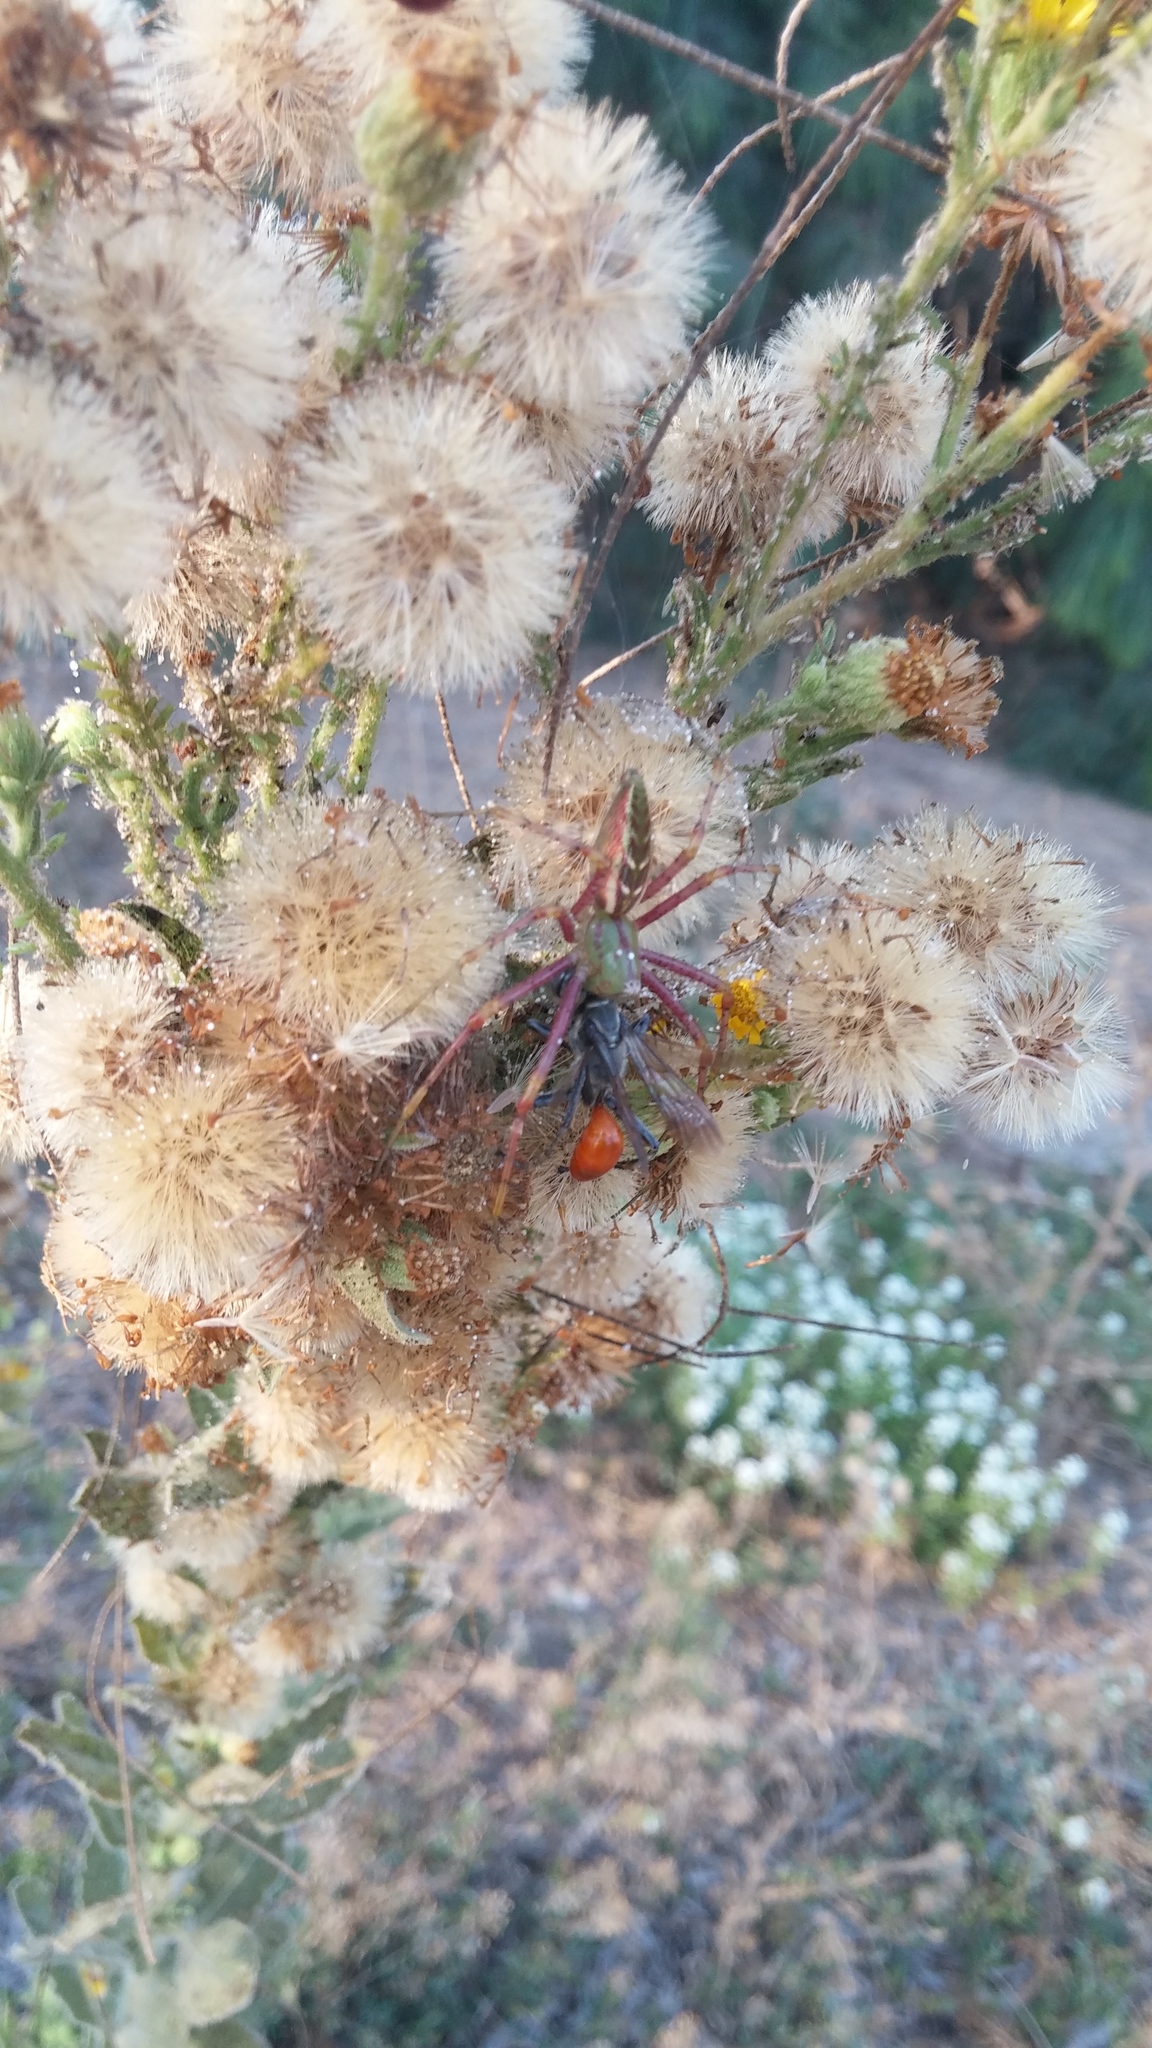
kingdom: Animalia
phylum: Arthropoda
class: Arachnida
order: Araneae
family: Oxyopidae
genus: Peucetia
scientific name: Peucetia viridans
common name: Lynx spiders
